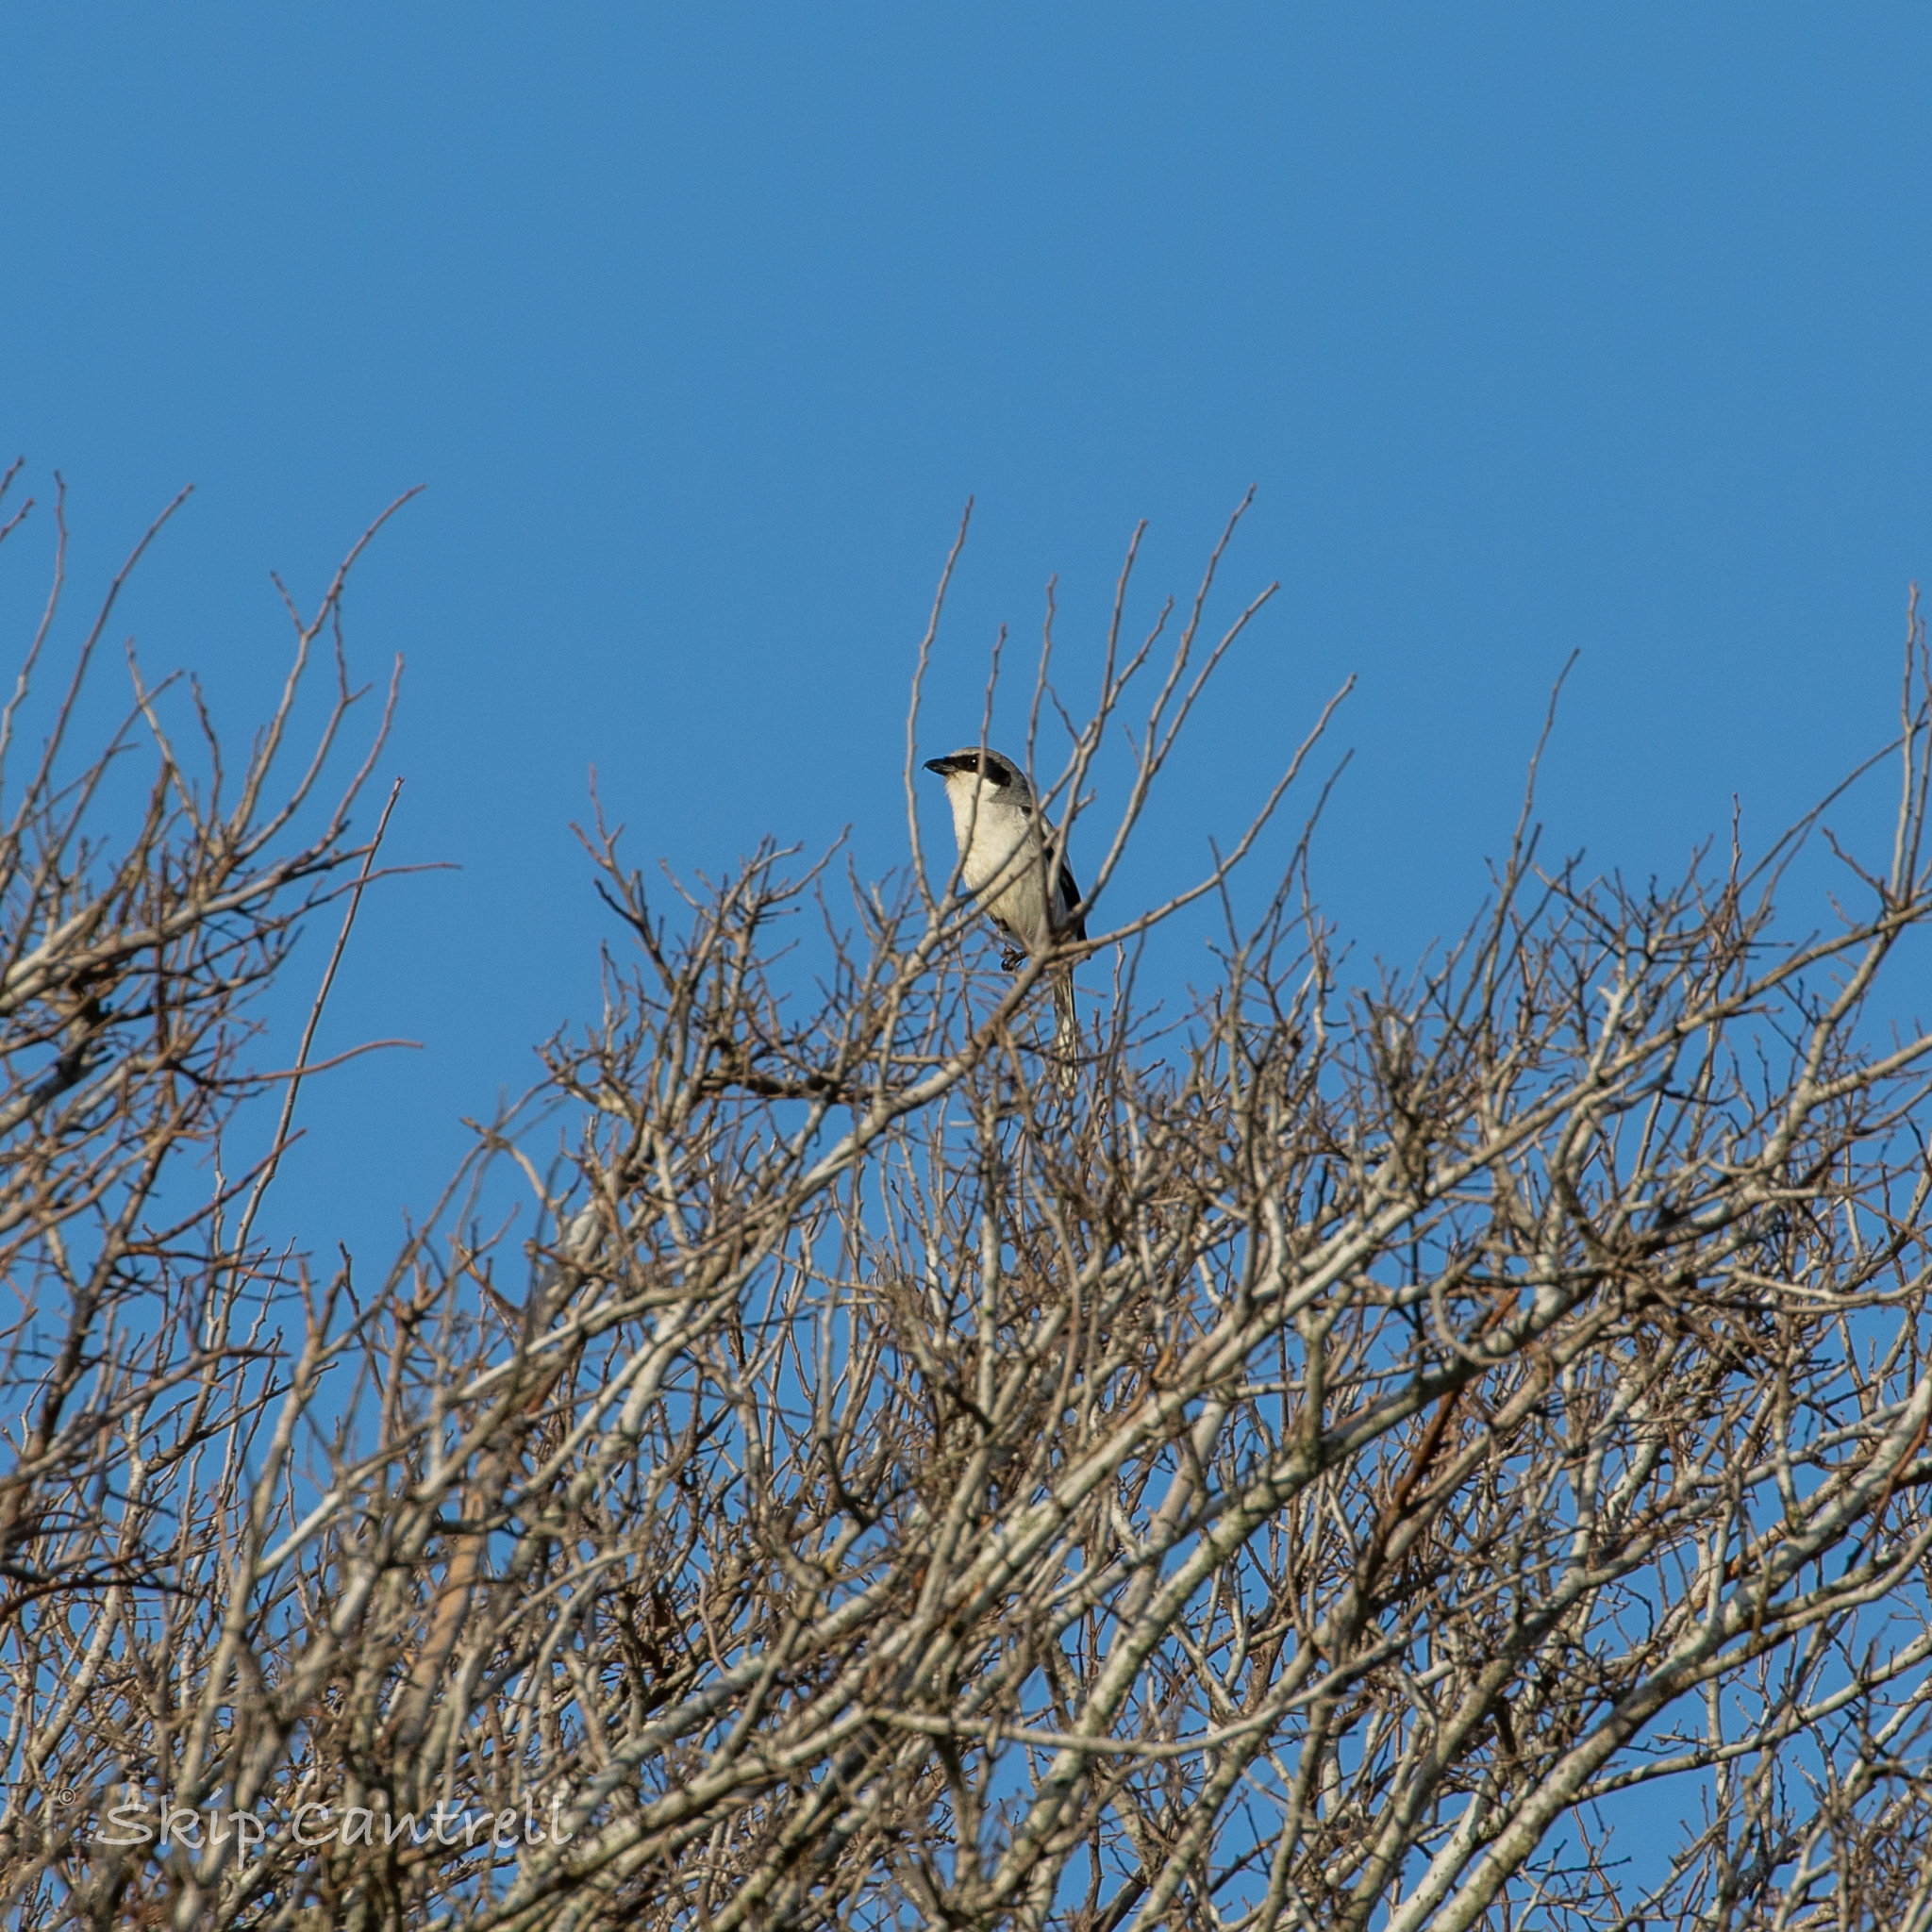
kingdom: Animalia
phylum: Chordata
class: Aves
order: Passeriformes
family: Laniidae
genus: Lanius
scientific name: Lanius ludovicianus
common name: Loggerhead shrike
